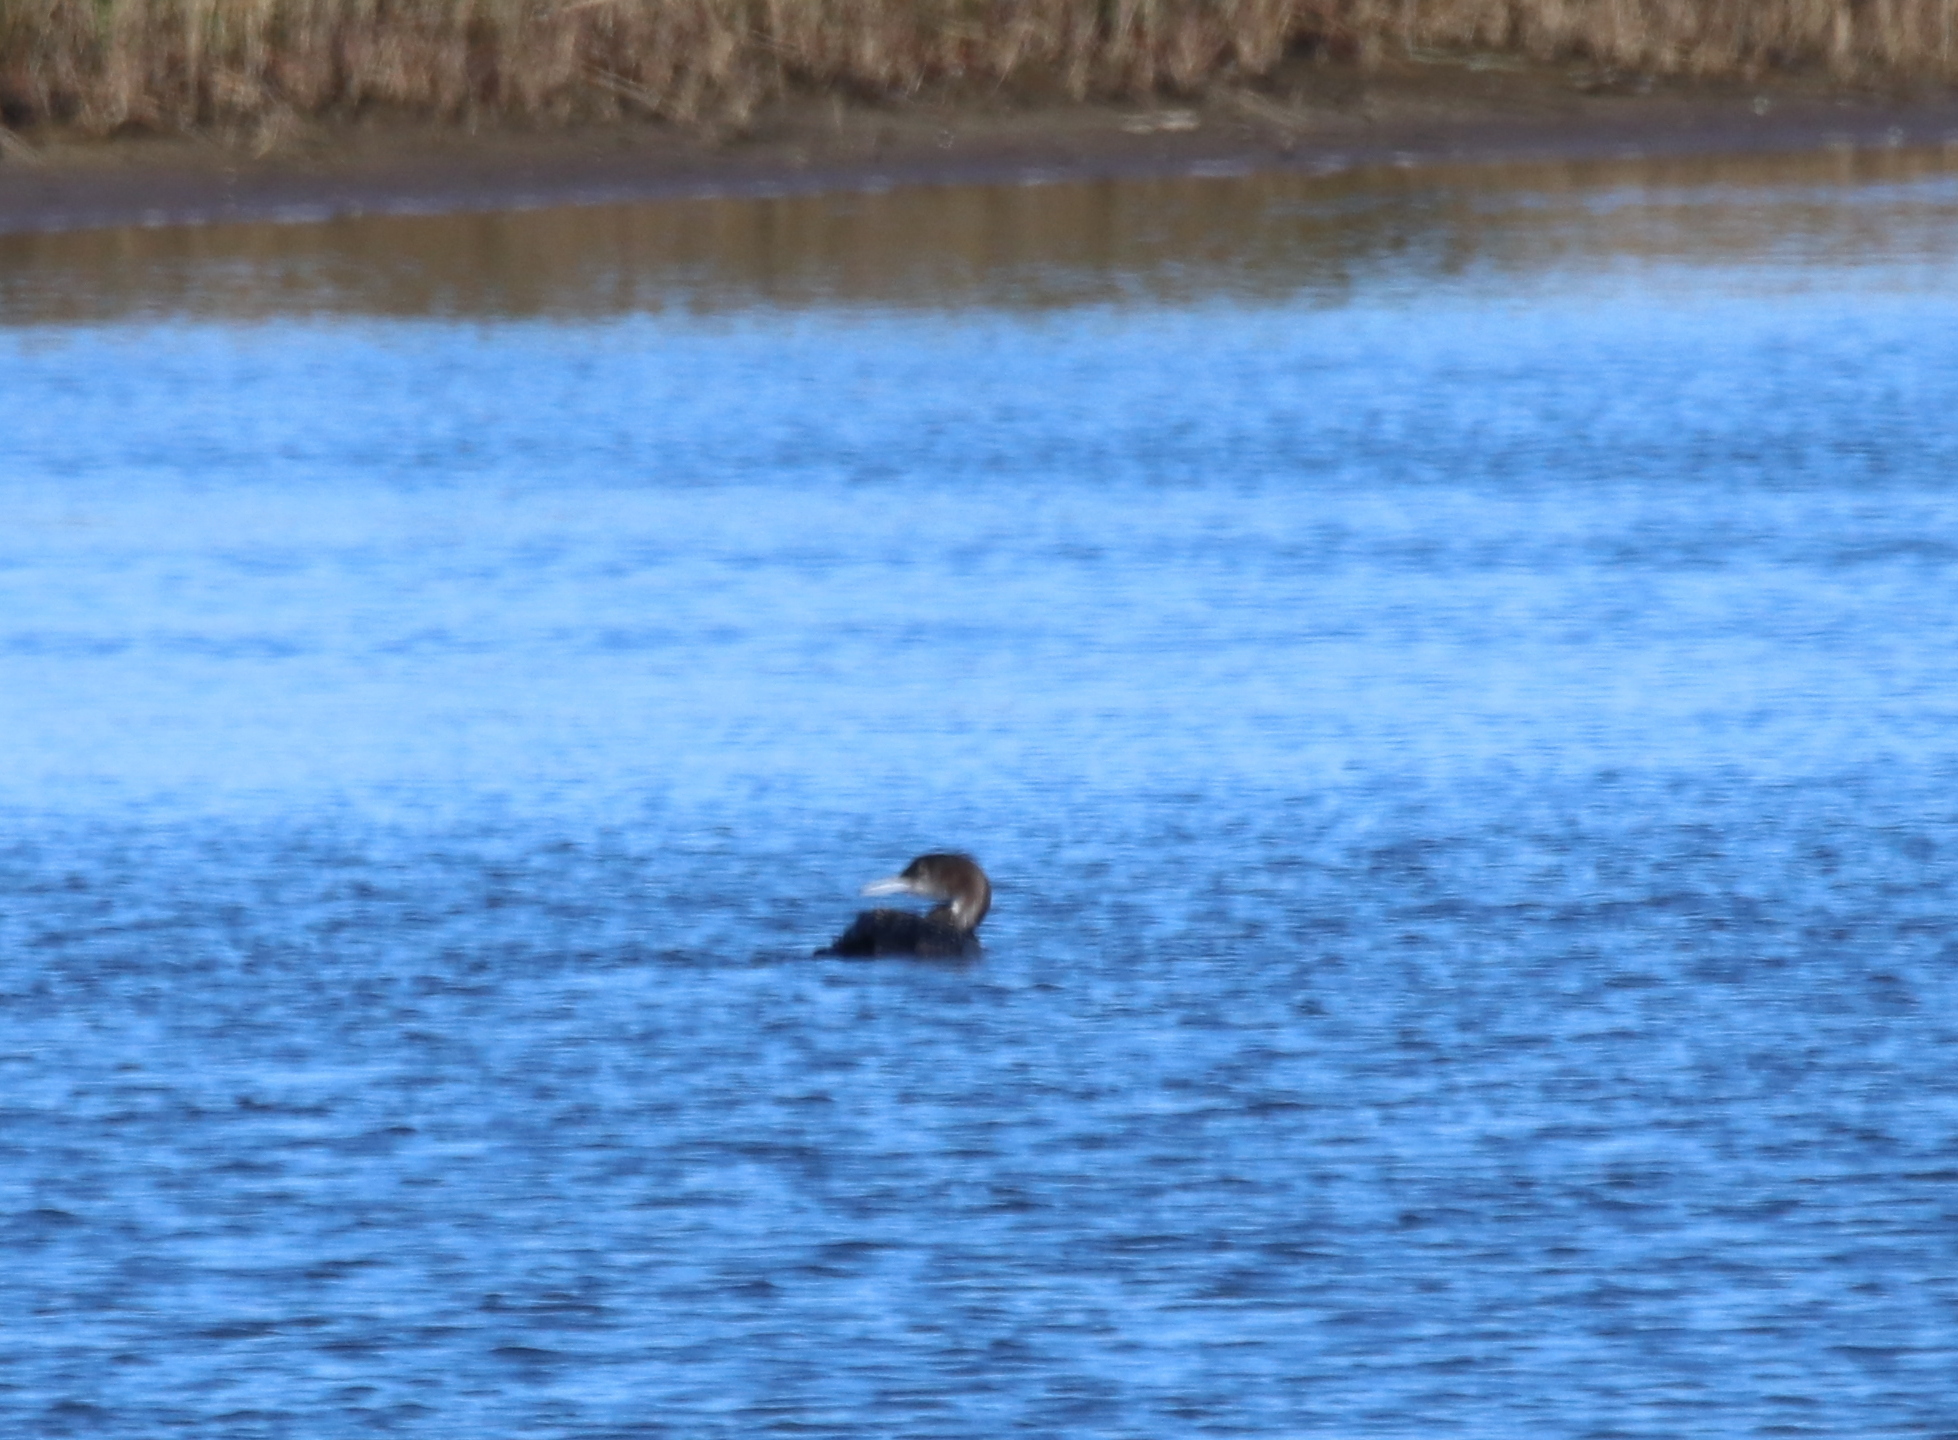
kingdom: Animalia
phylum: Chordata
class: Aves
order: Gaviiformes
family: Gaviidae
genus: Gavia
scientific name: Gavia immer
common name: Common loon
